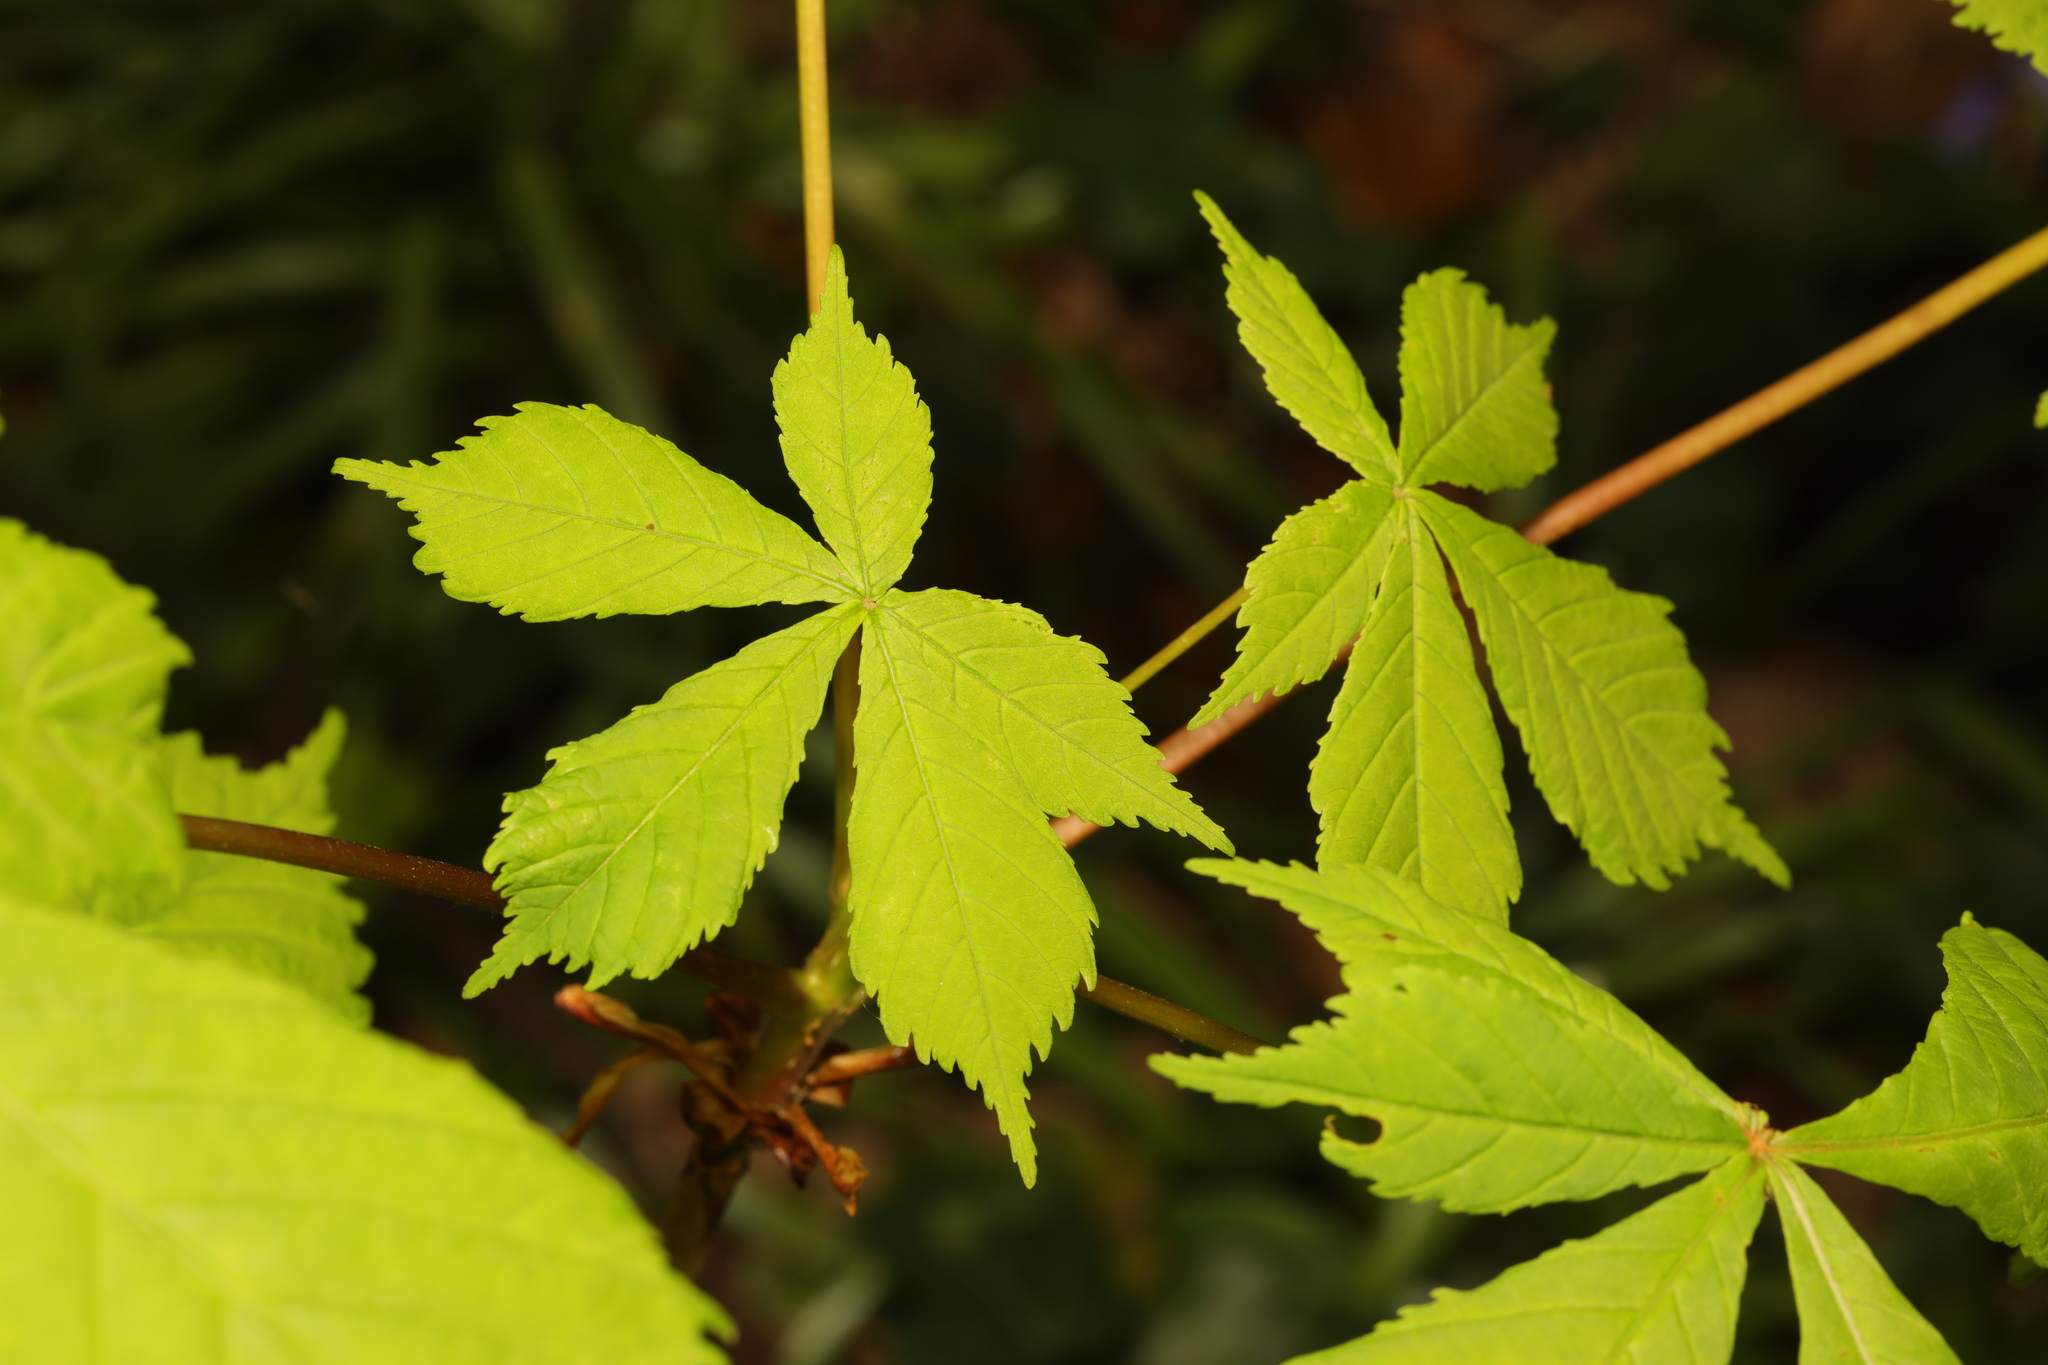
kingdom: Plantae
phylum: Tracheophyta
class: Magnoliopsida
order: Sapindales
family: Sapindaceae
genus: Aesculus
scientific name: Aesculus hippocastanum
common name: Horse-chestnut
